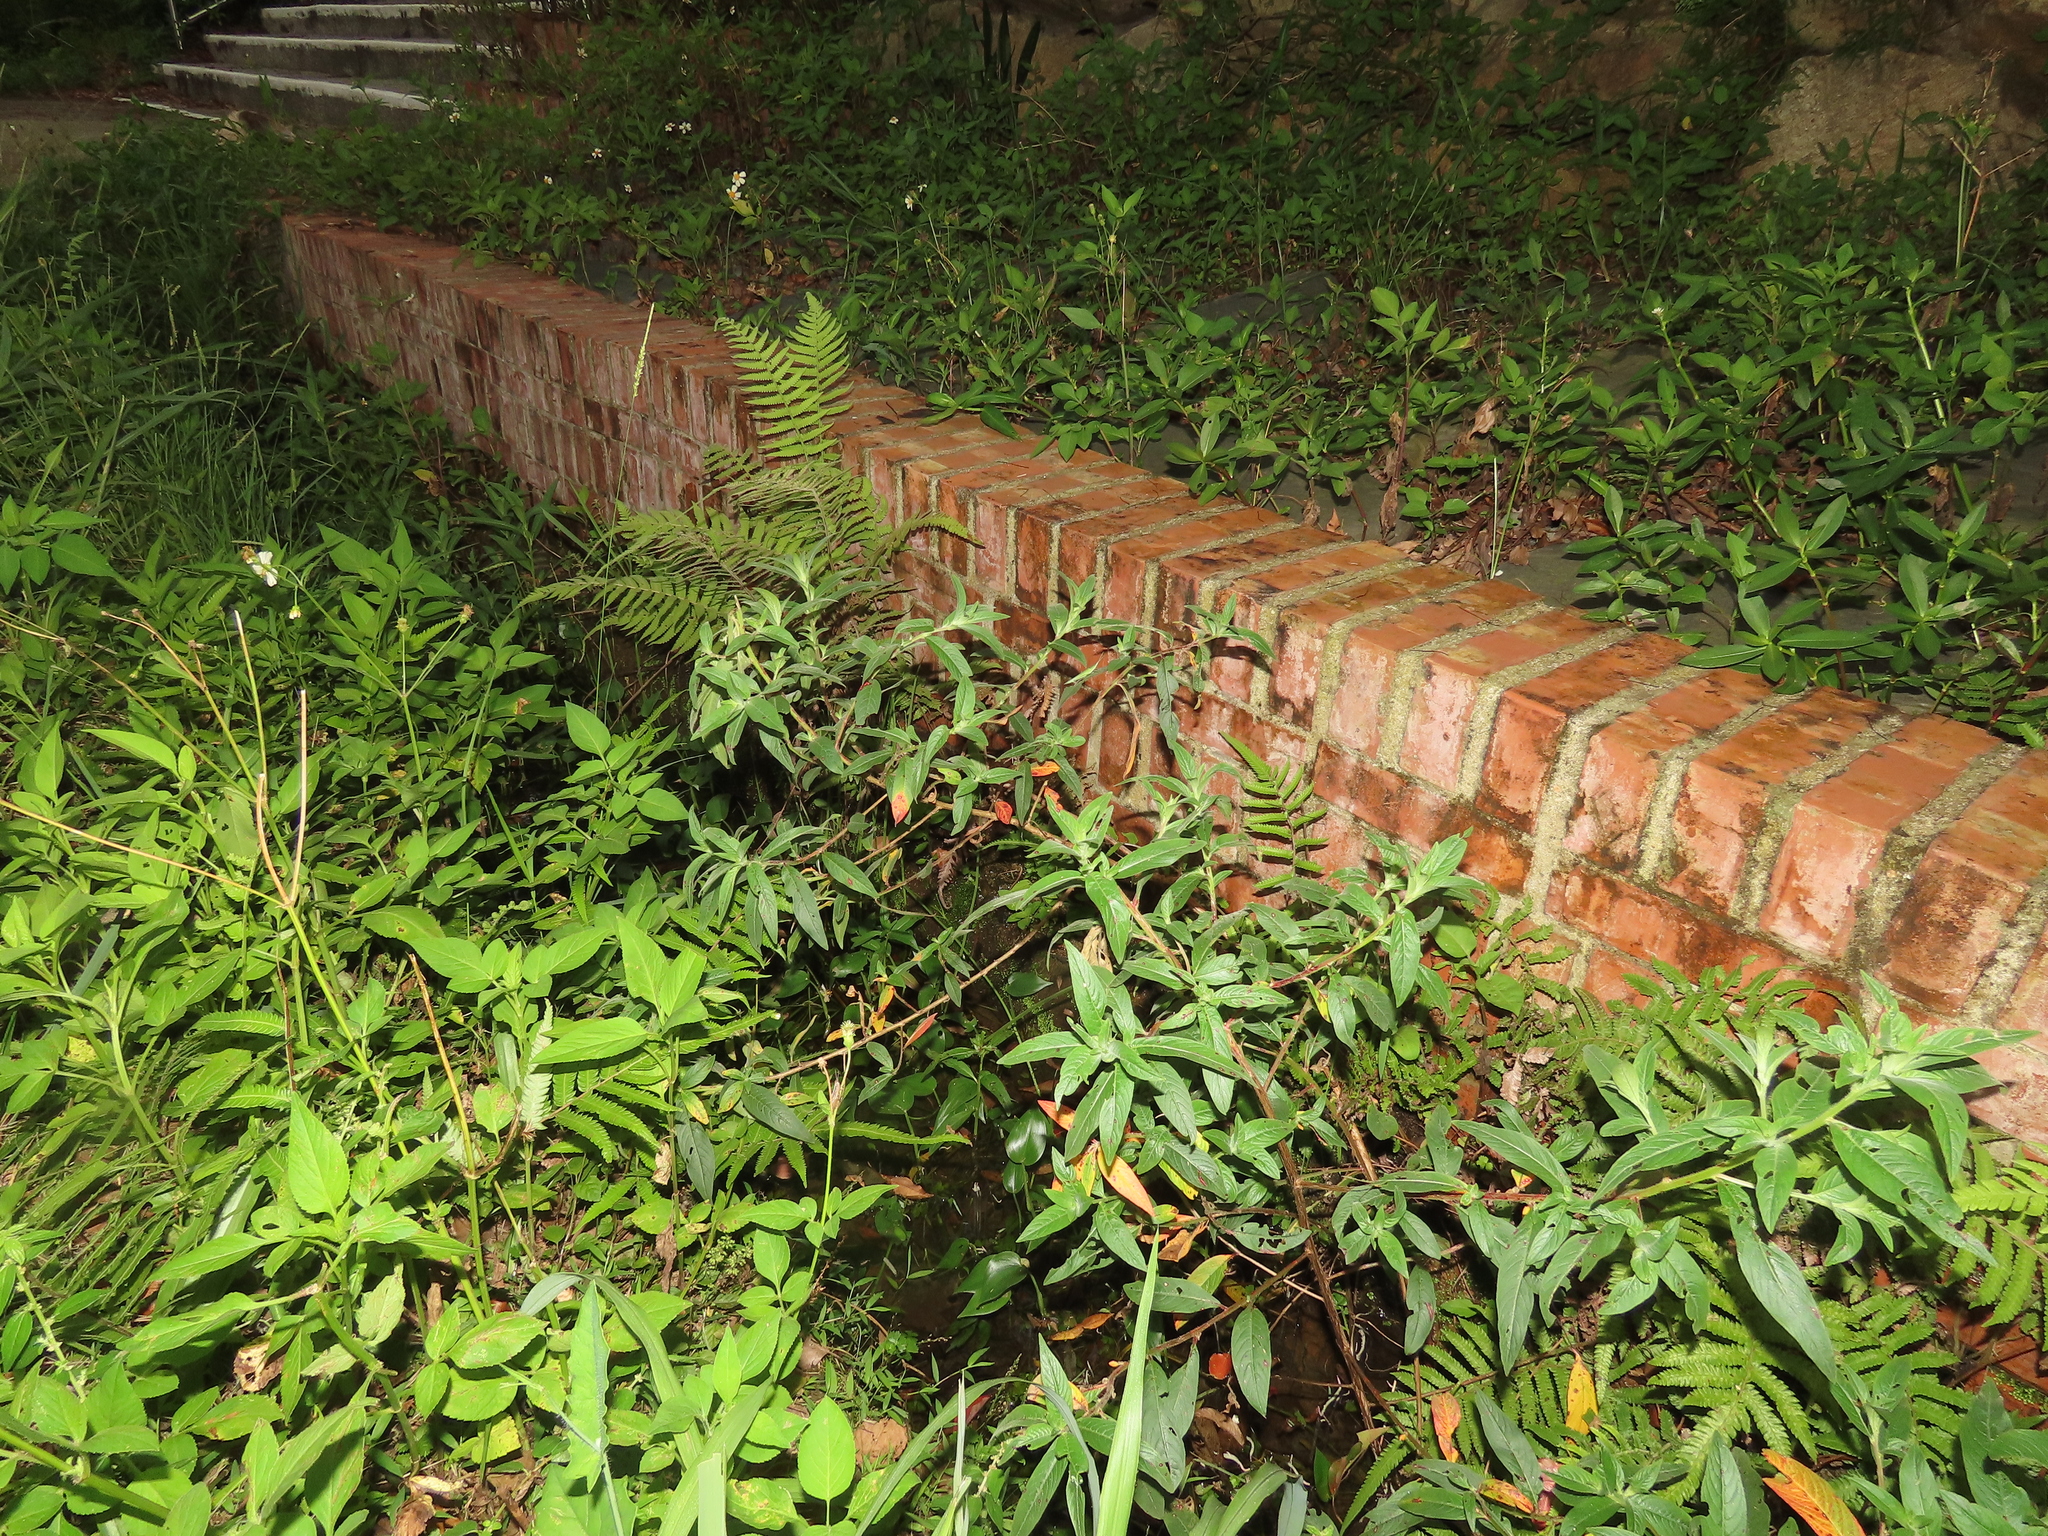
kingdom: Plantae
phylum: Tracheophyta
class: Magnoliopsida
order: Myrtales
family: Onagraceae
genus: Ludwigia
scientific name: Ludwigia octovalvis
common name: Water-primrose
